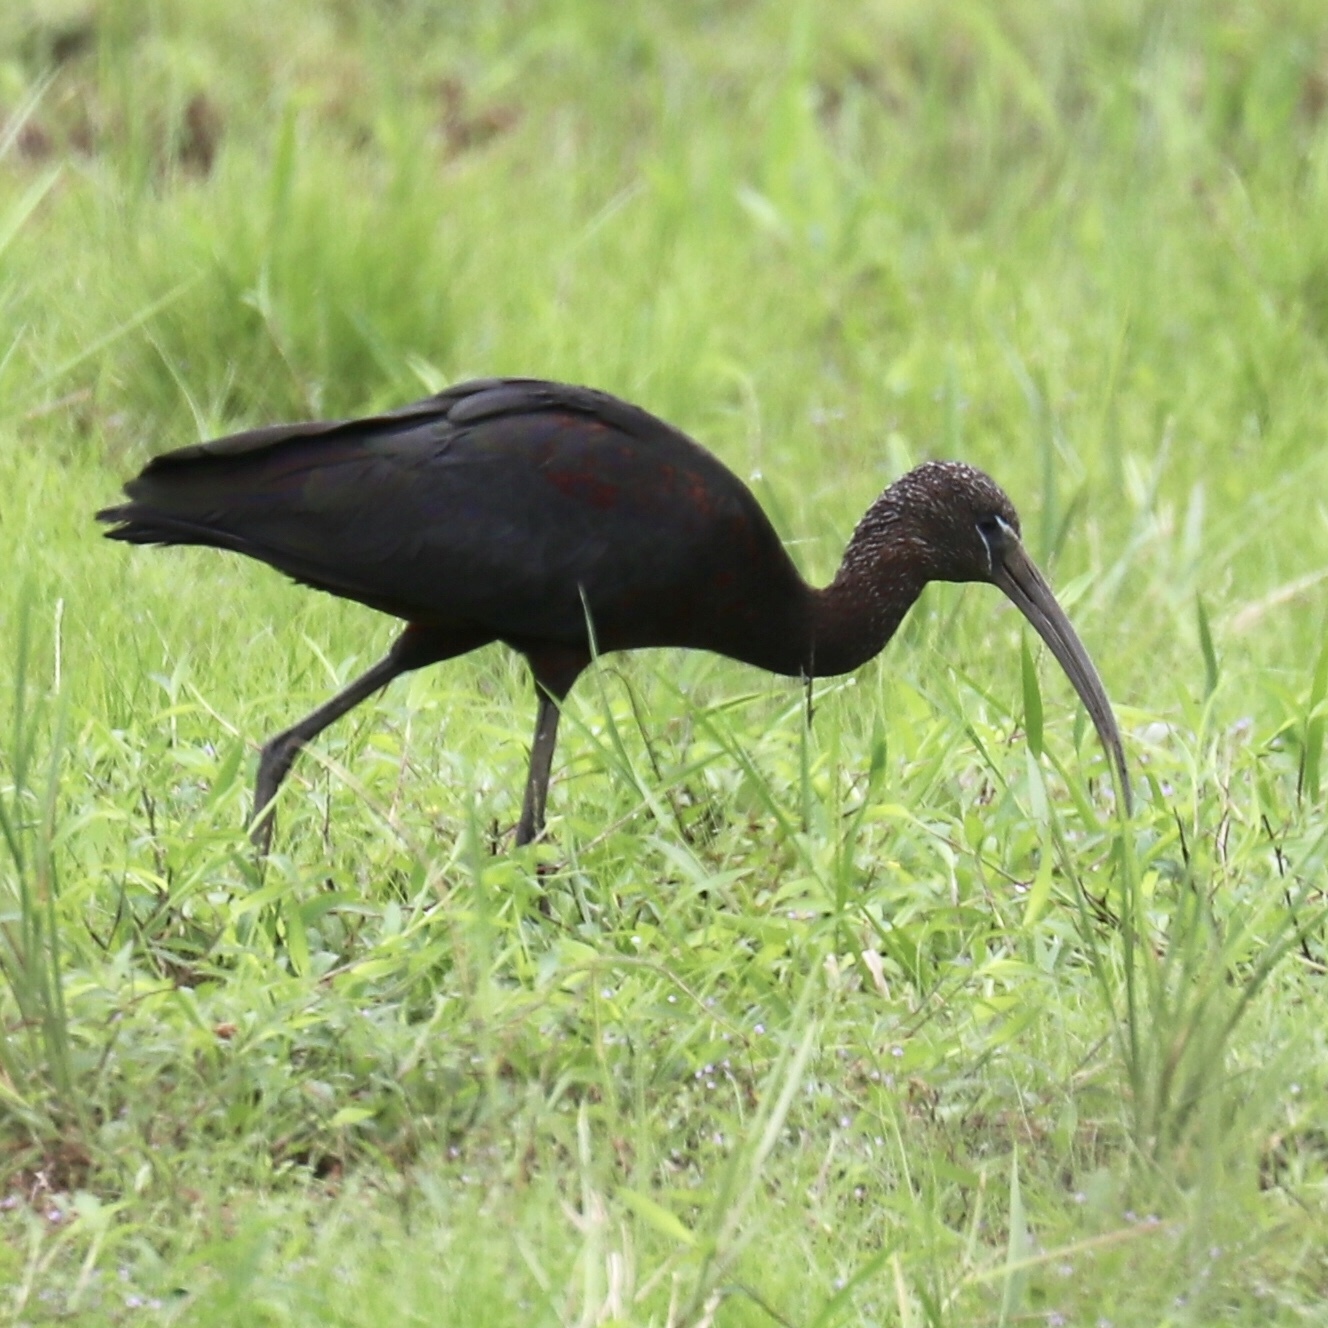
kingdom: Animalia
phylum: Chordata
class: Aves
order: Pelecaniformes
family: Threskiornithidae
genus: Plegadis
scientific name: Plegadis falcinellus
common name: Glossy ibis
